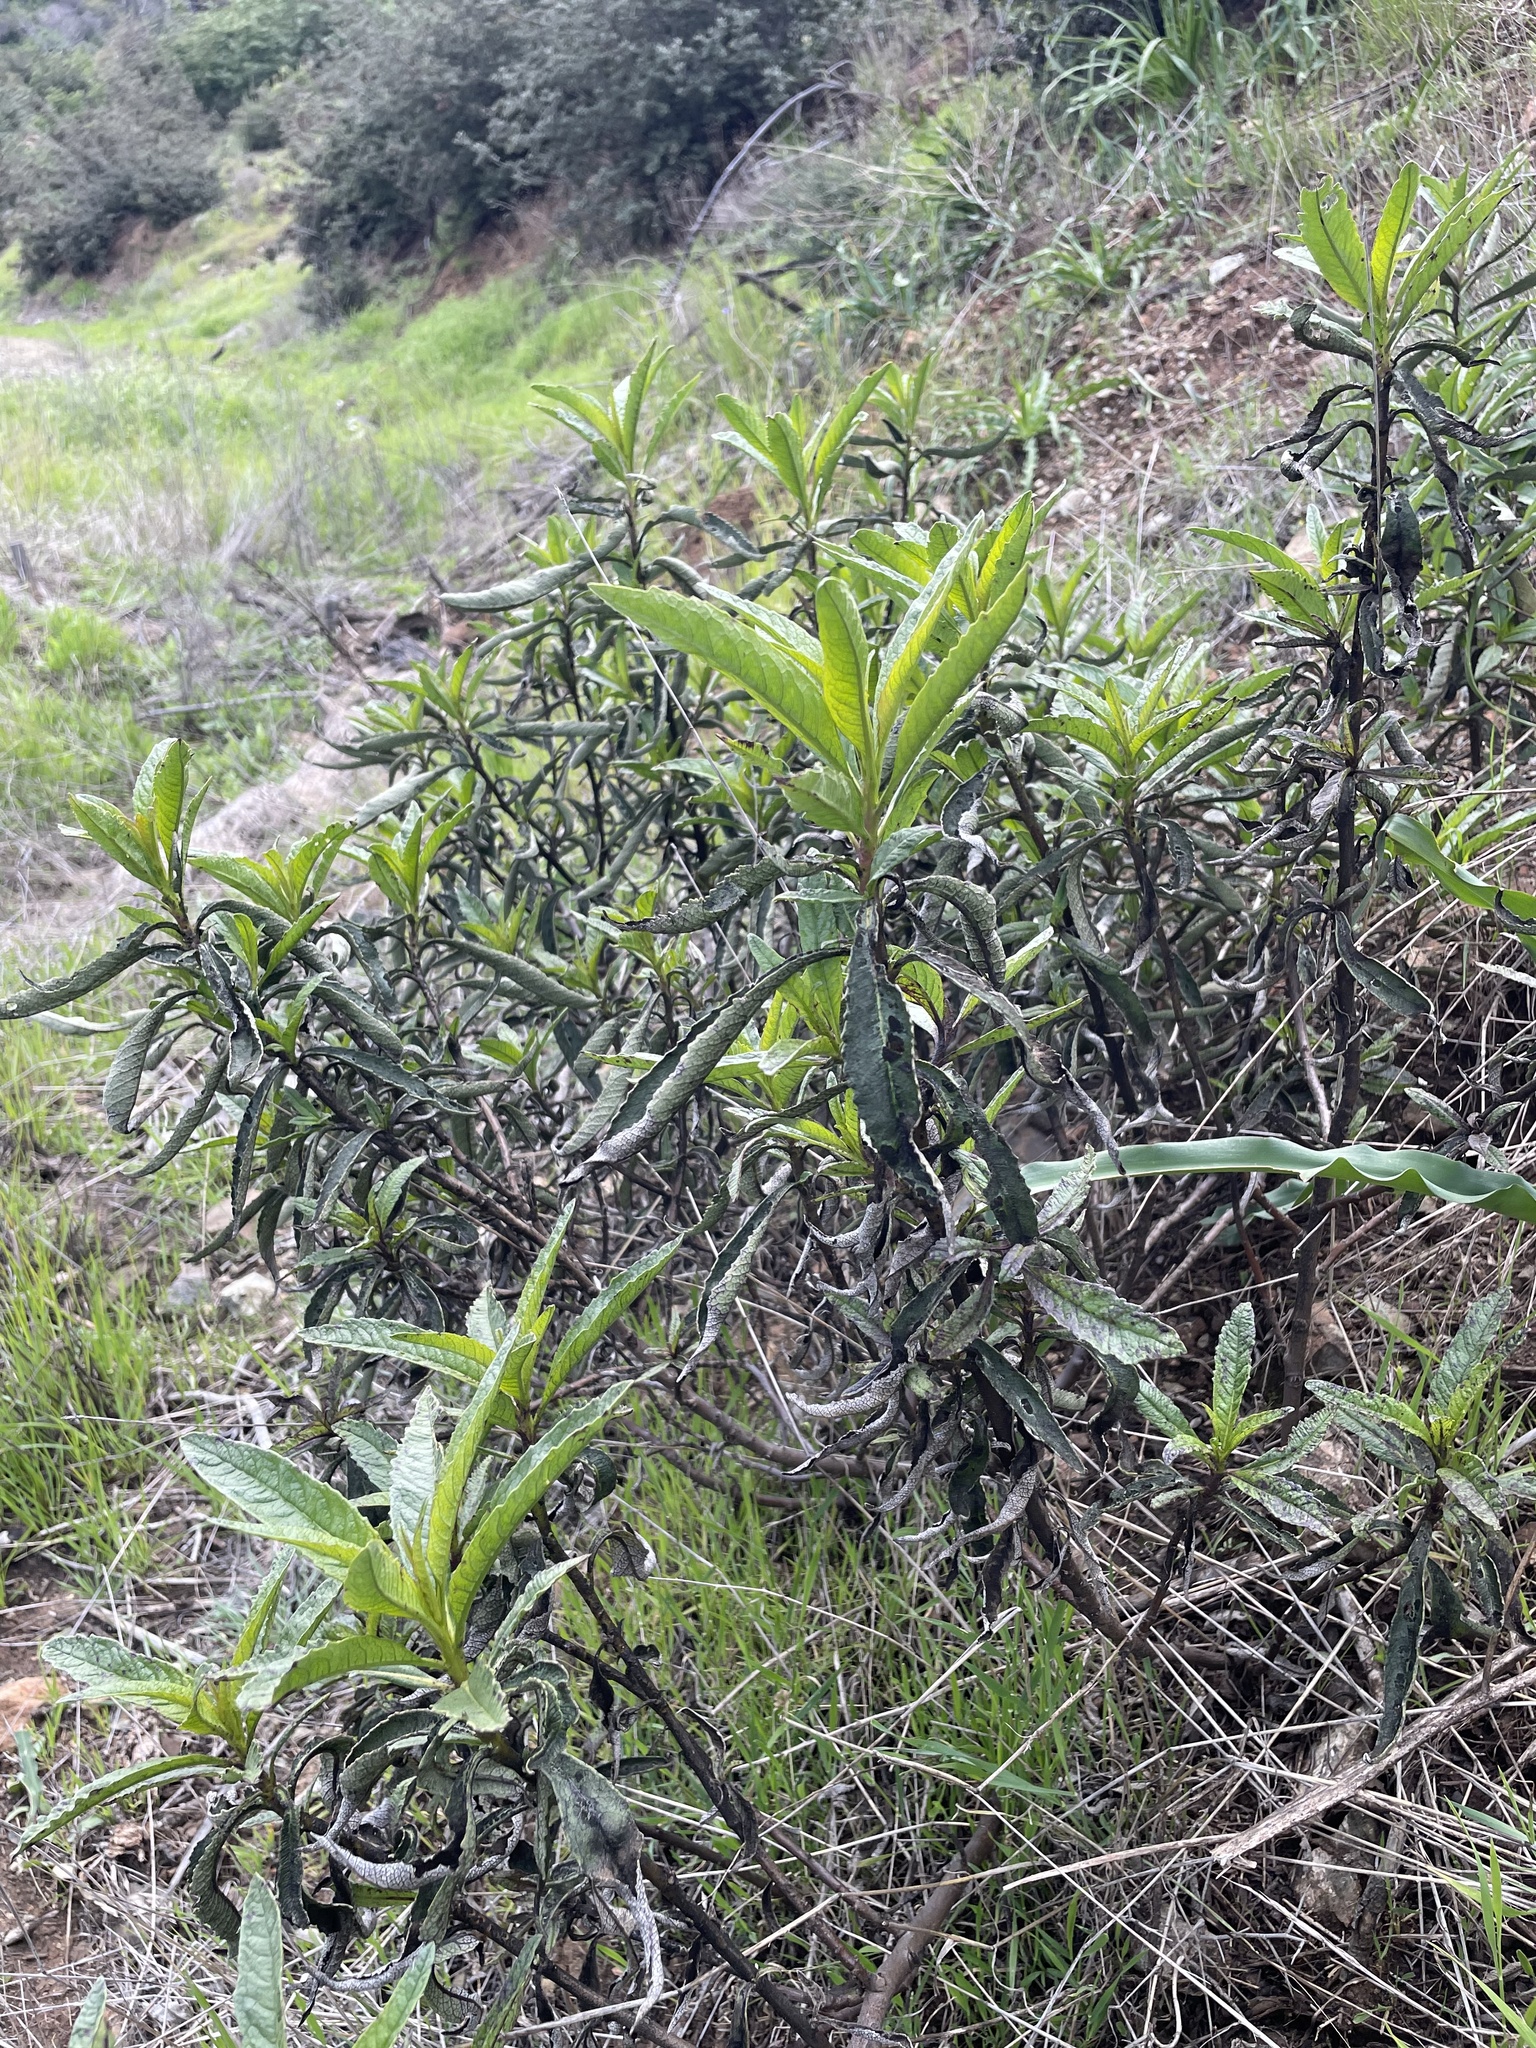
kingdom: Plantae
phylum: Tracheophyta
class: Magnoliopsida
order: Boraginales
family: Namaceae
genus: Eriodictyon
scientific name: Eriodictyon californicum
